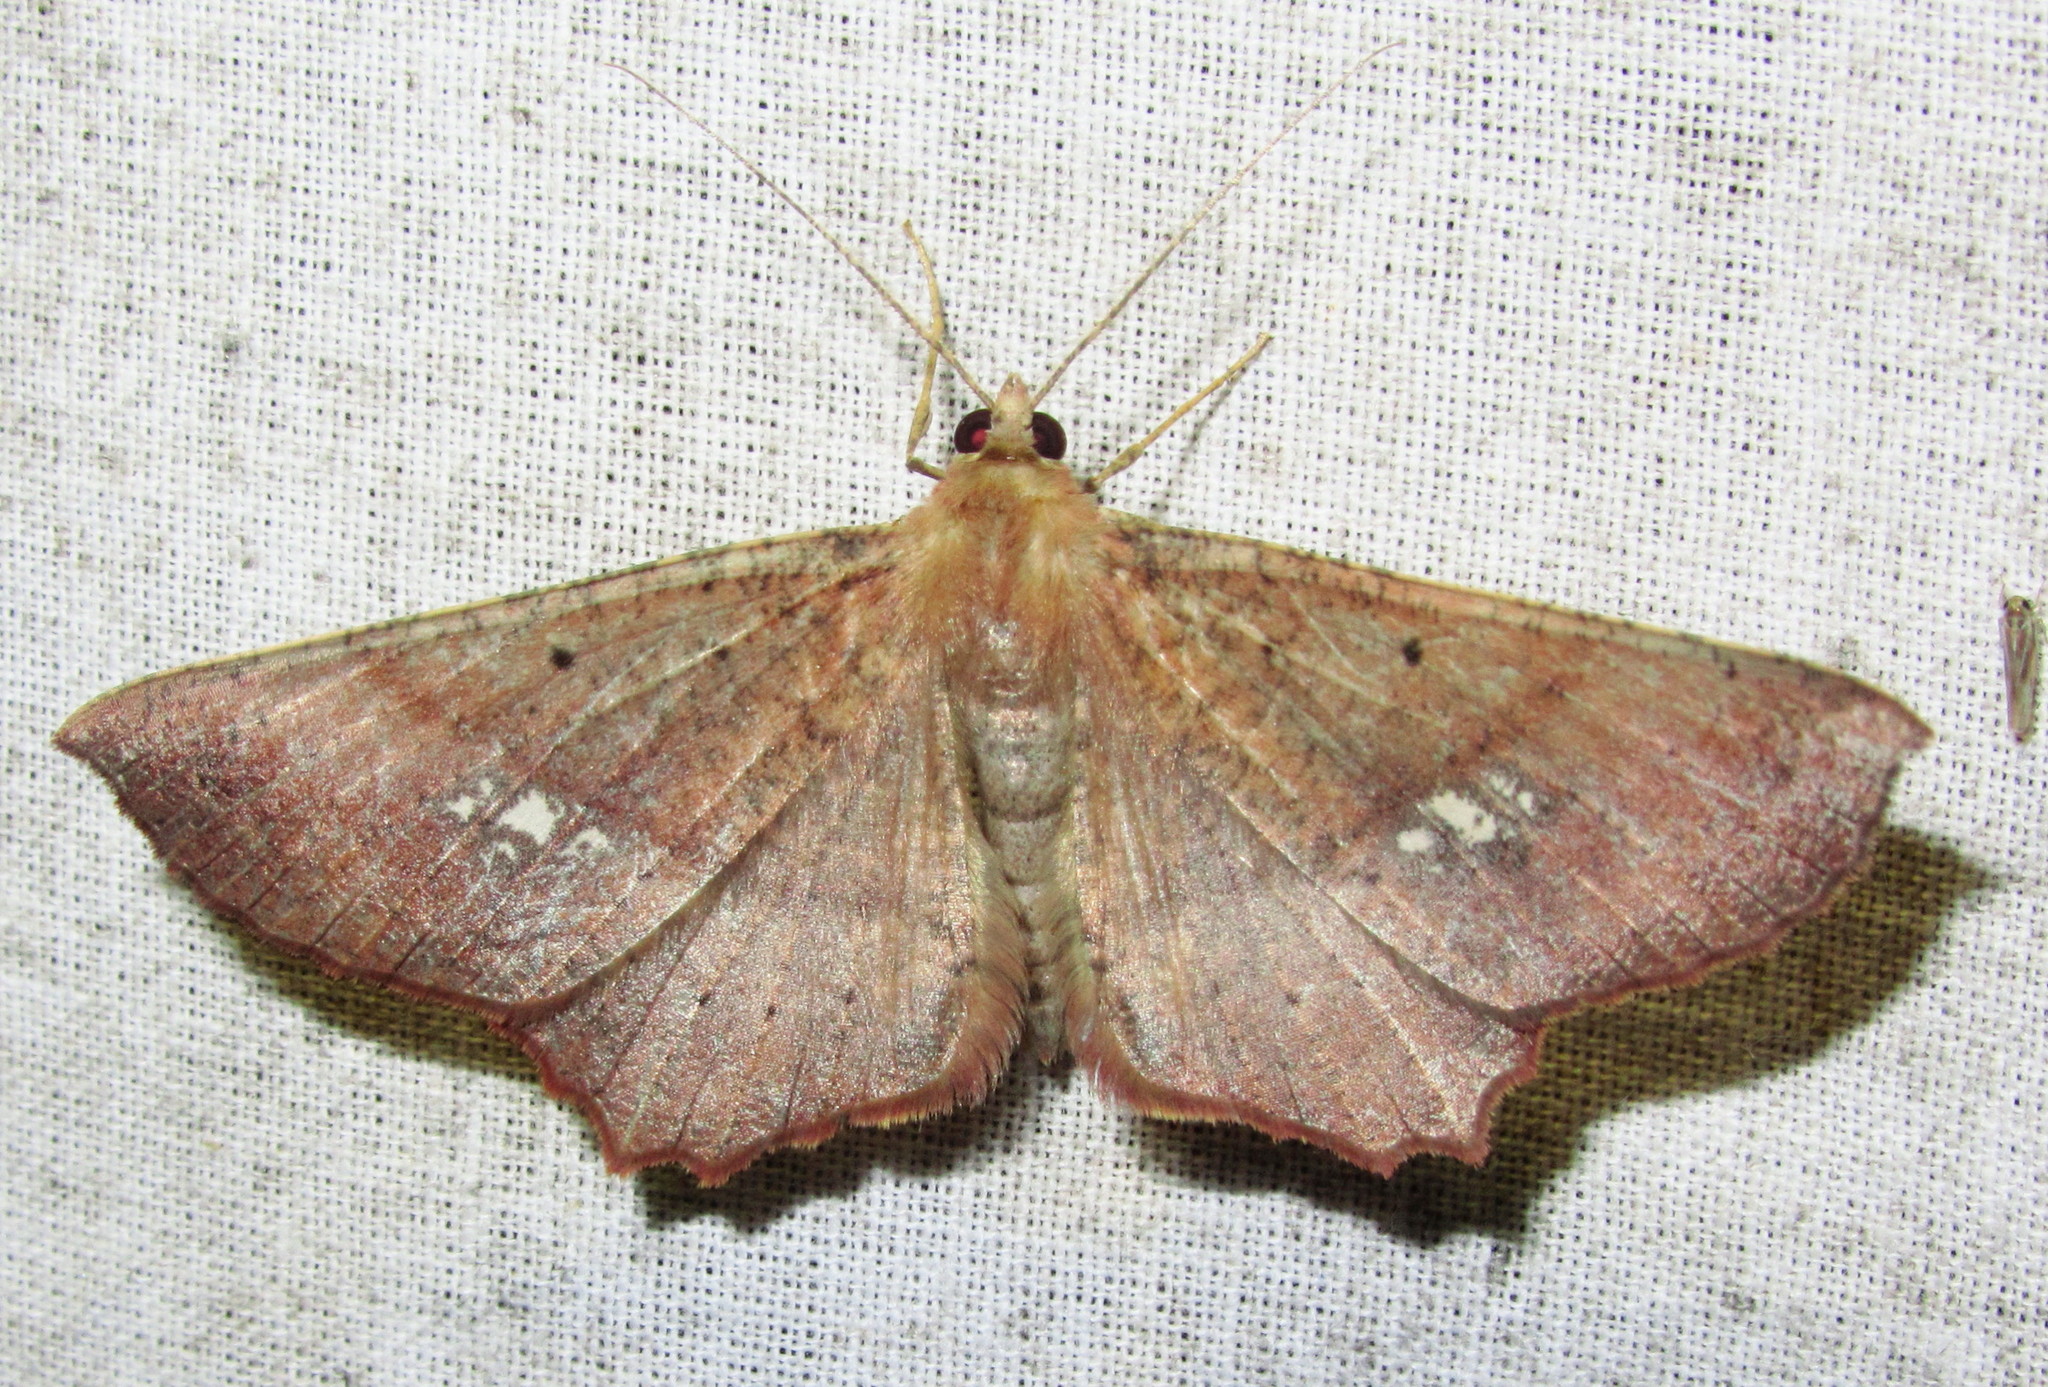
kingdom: Animalia
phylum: Arthropoda
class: Insecta
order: Lepidoptera
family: Geometridae
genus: Xerodes
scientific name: Xerodes contiguaria
